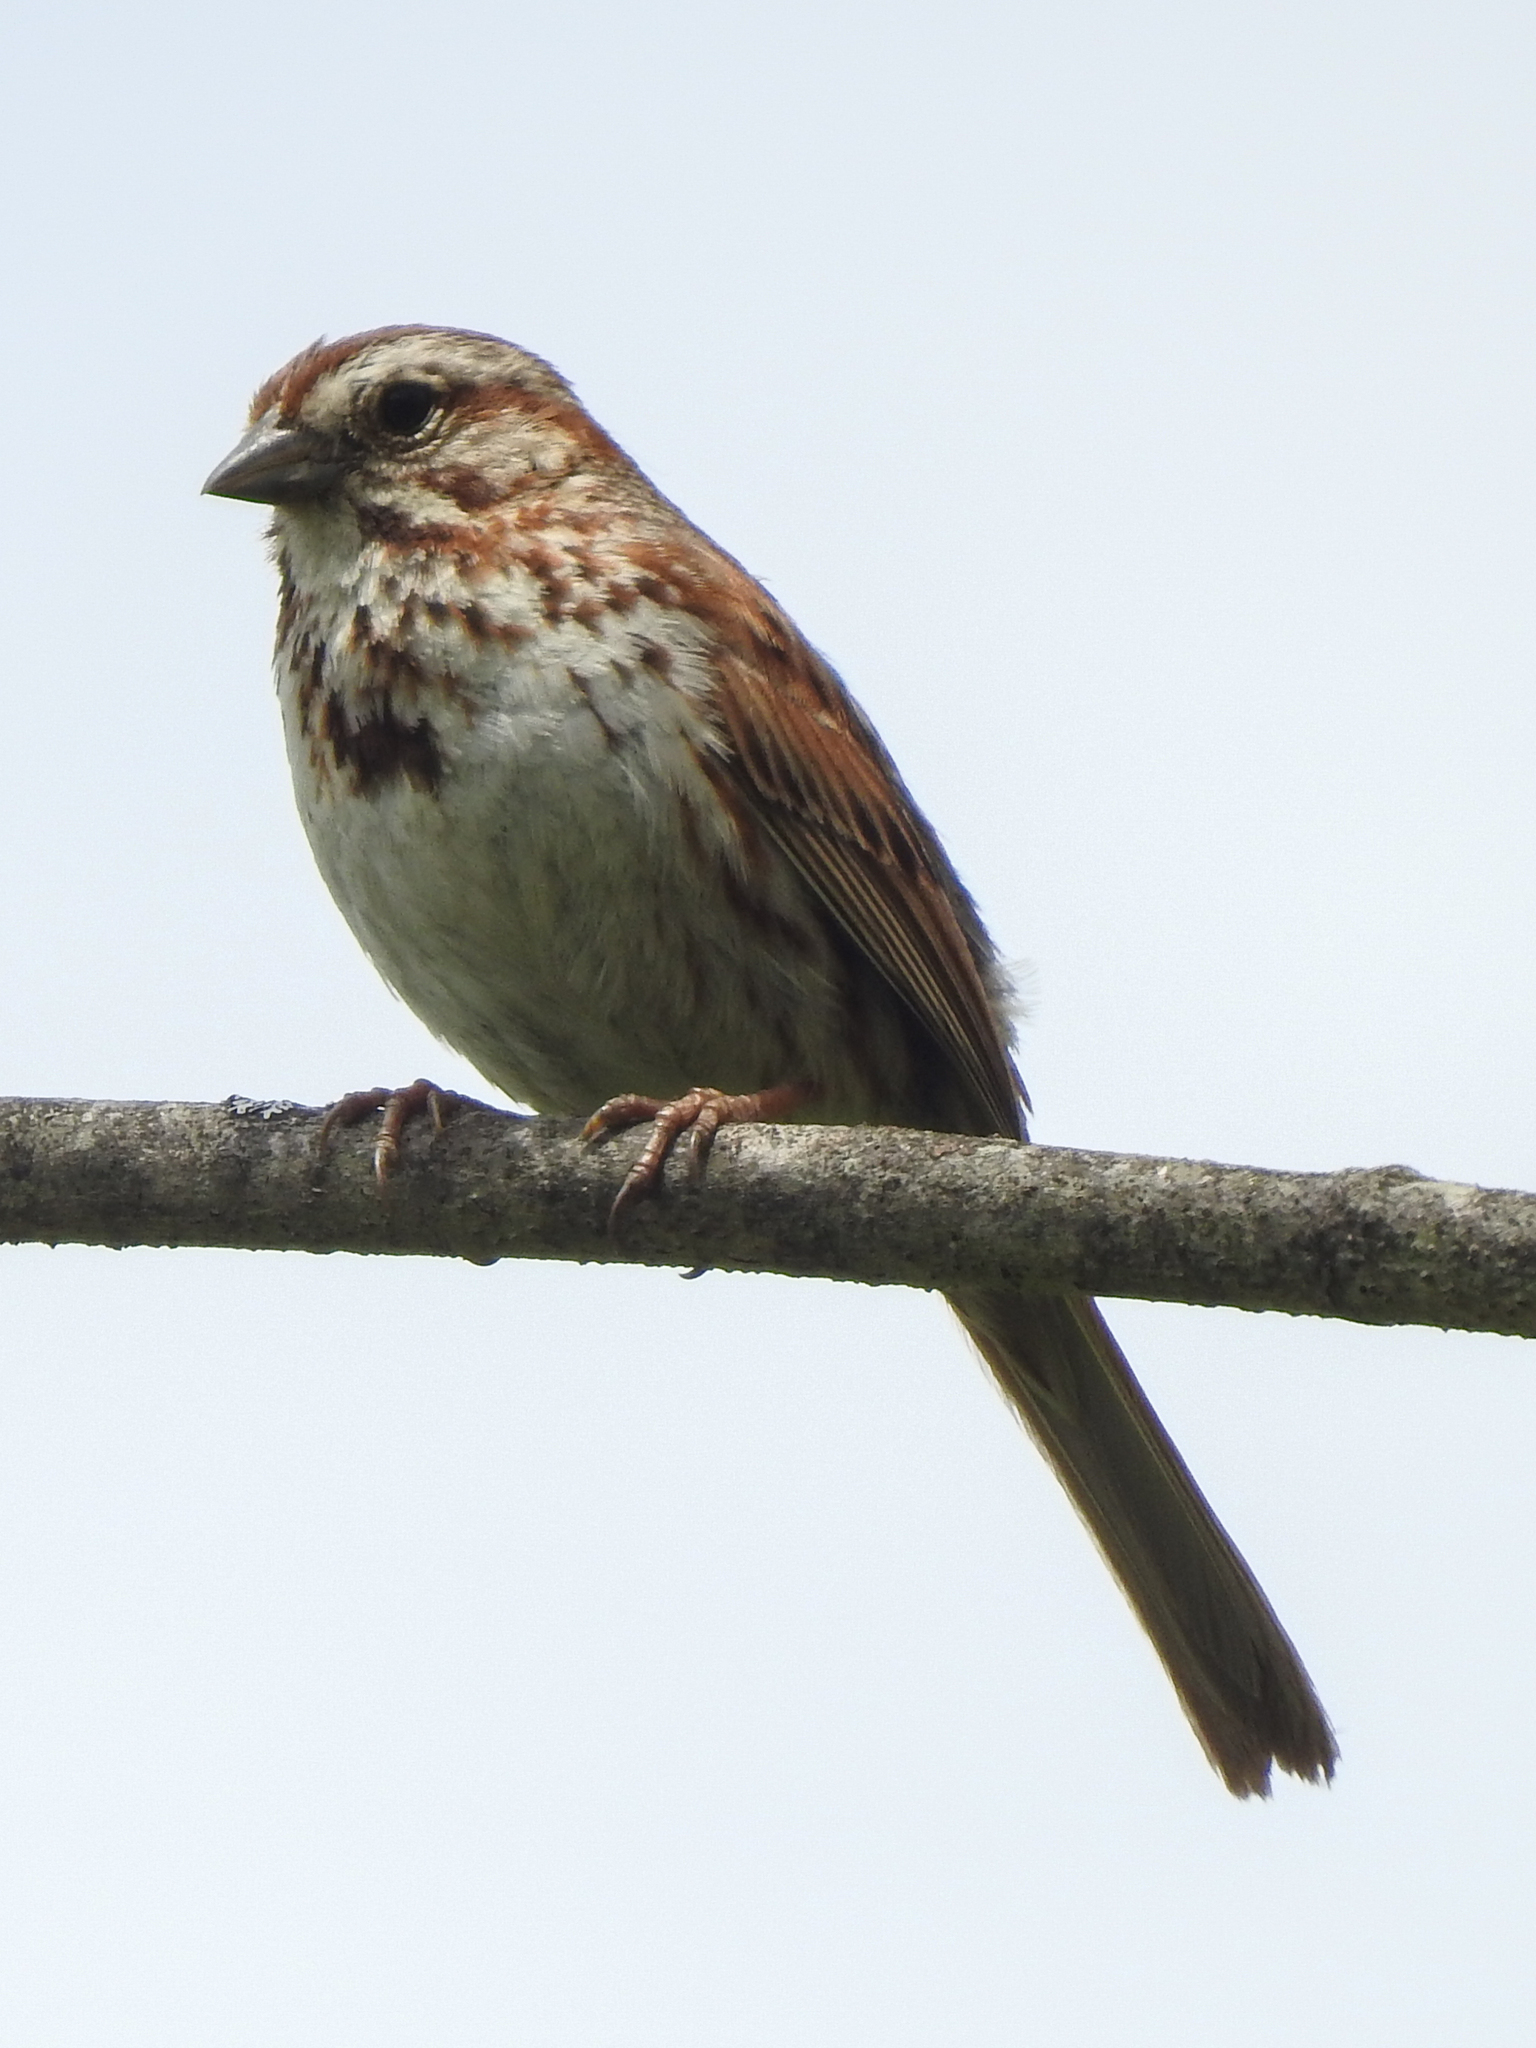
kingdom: Animalia
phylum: Chordata
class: Aves
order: Passeriformes
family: Passerellidae
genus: Melospiza
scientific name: Melospiza melodia
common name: Song sparrow
